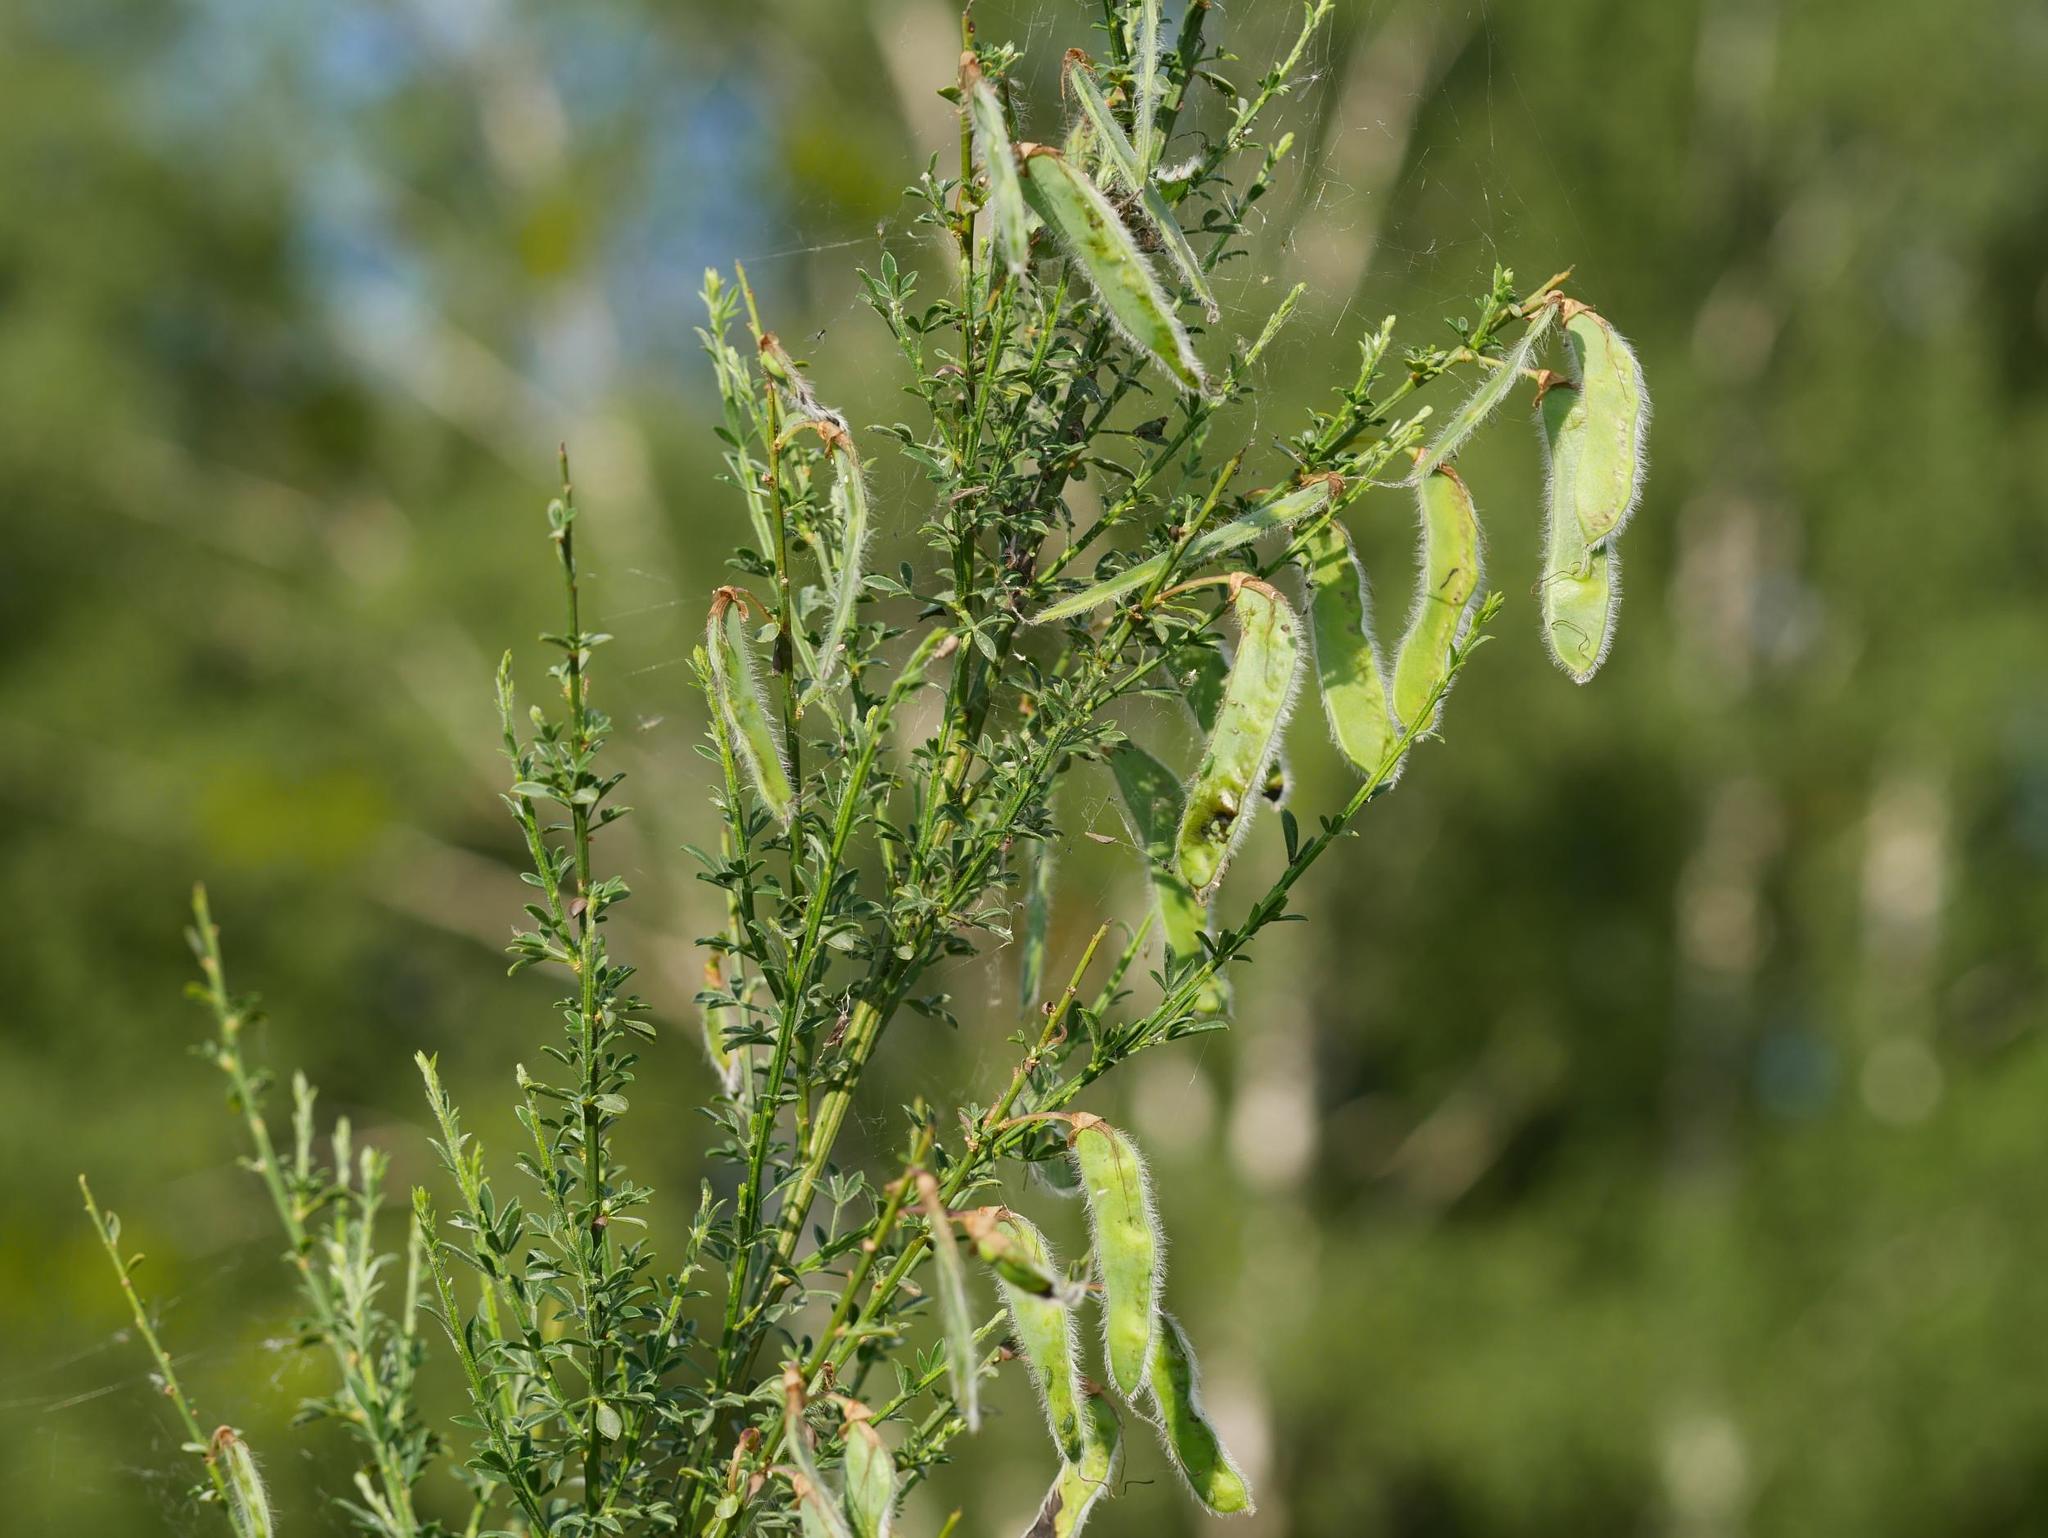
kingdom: Plantae
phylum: Tracheophyta
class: Magnoliopsida
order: Fabales
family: Fabaceae
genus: Cytisus
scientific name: Cytisus scoparius
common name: Scotch broom
